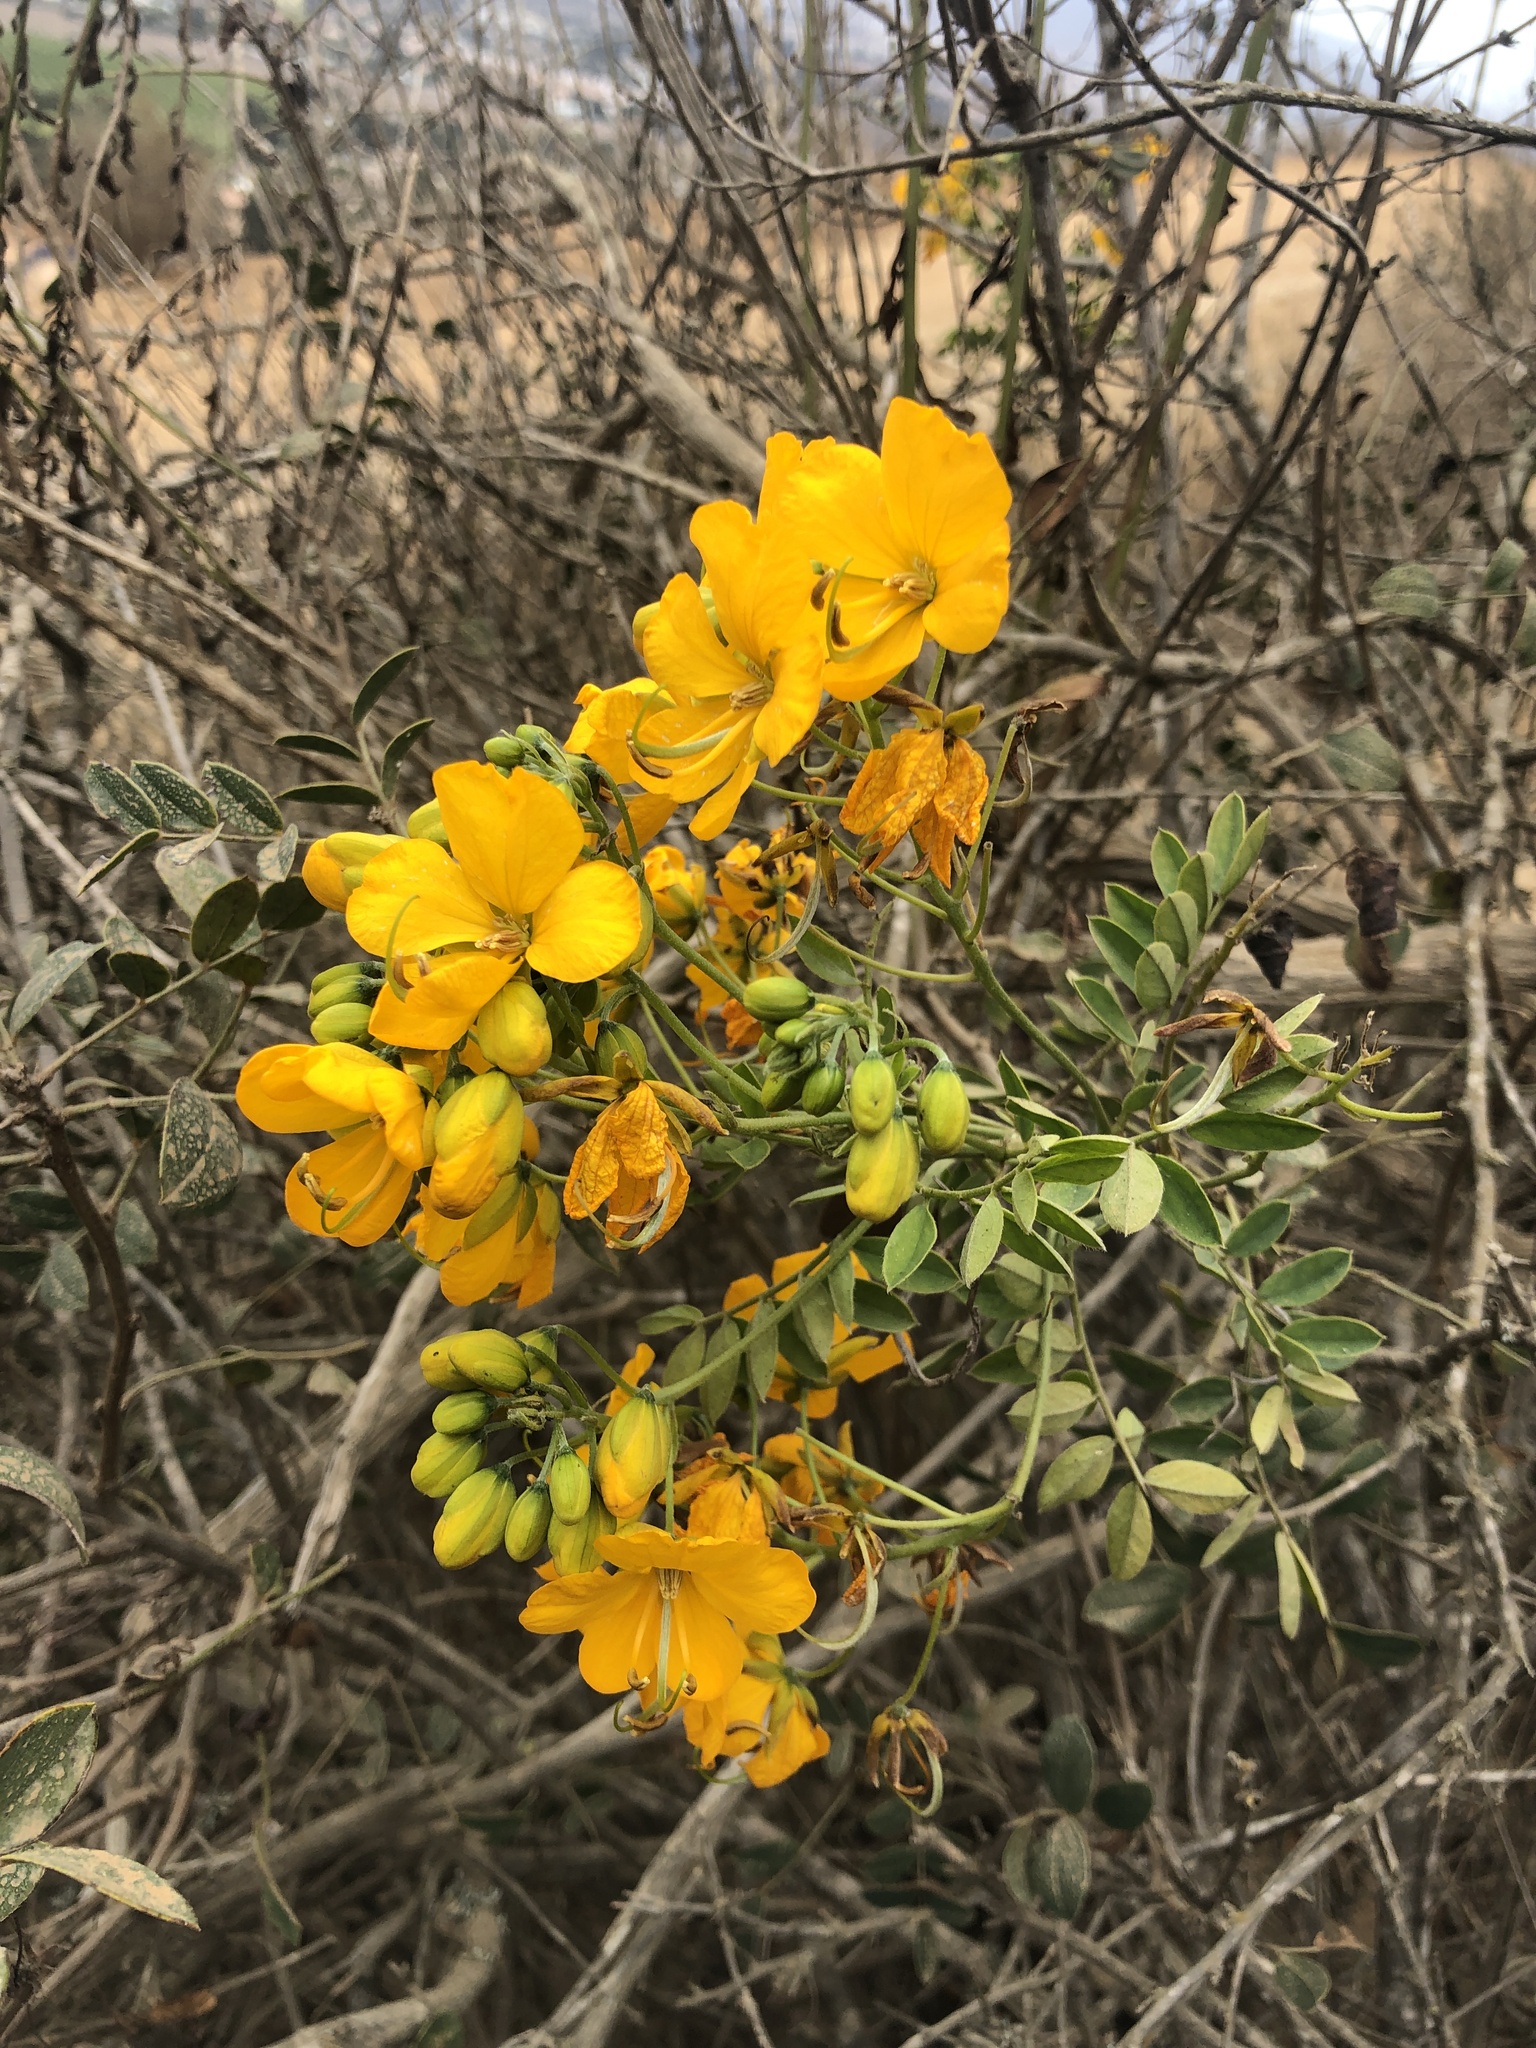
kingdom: Plantae
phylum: Tracheophyta
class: Magnoliopsida
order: Fabales
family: Fabaceae
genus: Senna
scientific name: Senna cumingii
